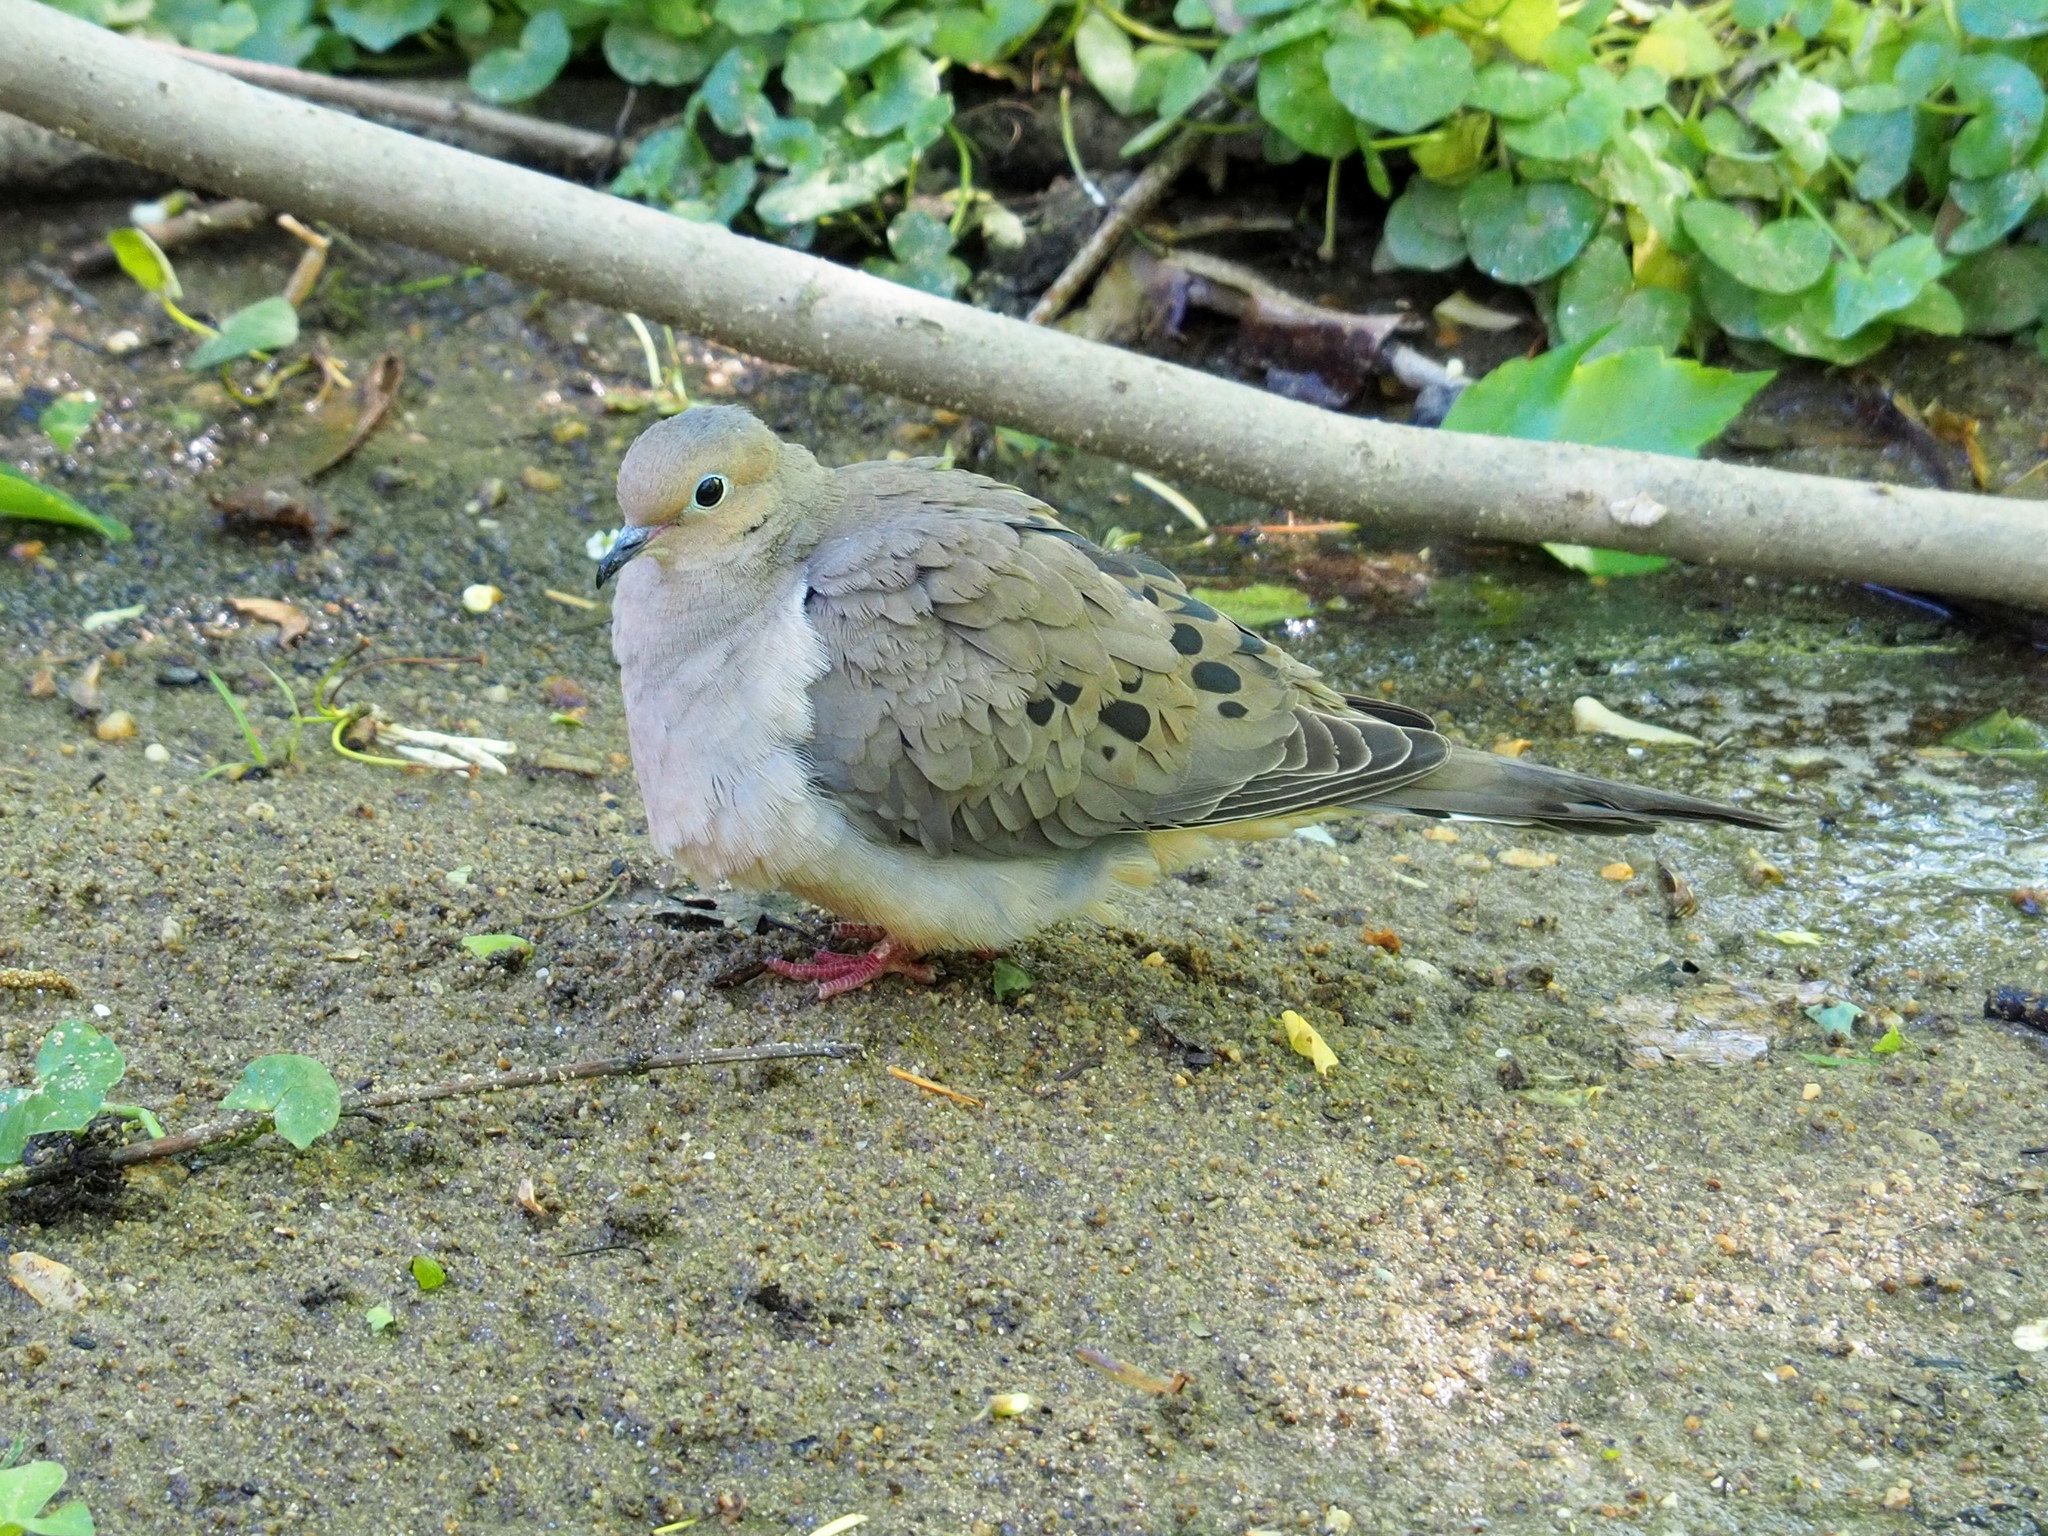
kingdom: Animalia
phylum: Chordata
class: Aves
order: Columbiformes
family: Columbidae
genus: Zenaida
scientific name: Zenaida macroura
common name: Mourning dove
